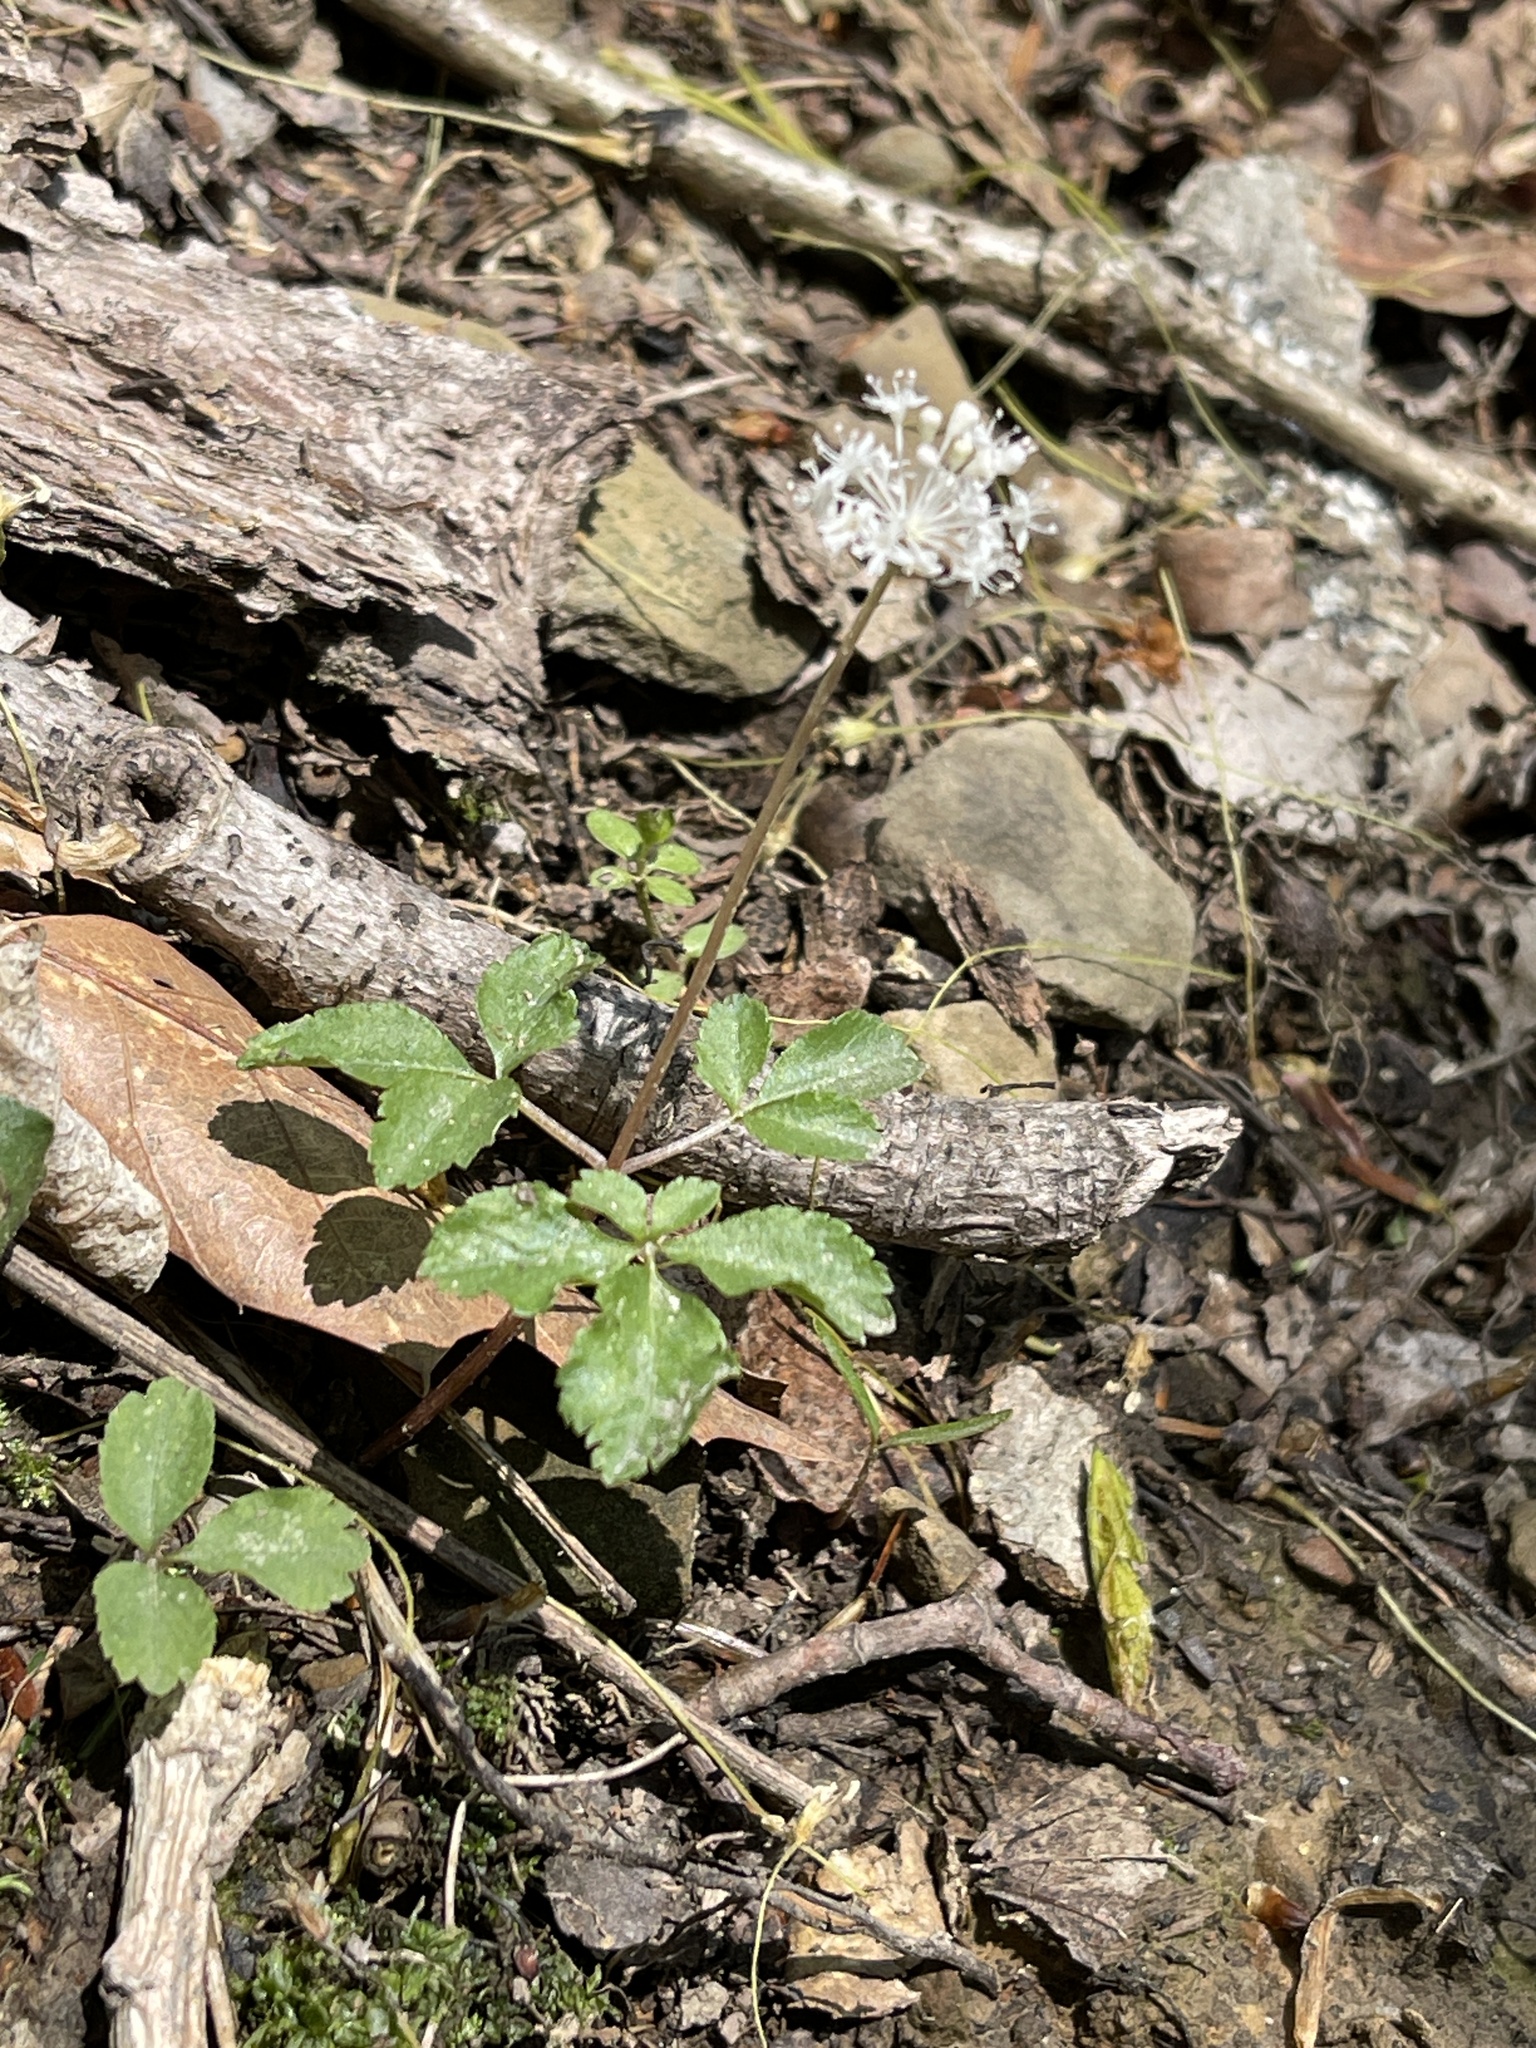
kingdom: Plantae
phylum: Tracheophyta
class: Magnoliopsida
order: Apiales
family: Araliaceae
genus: Panax
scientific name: Panax trifolius
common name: Dwarf ginseng
